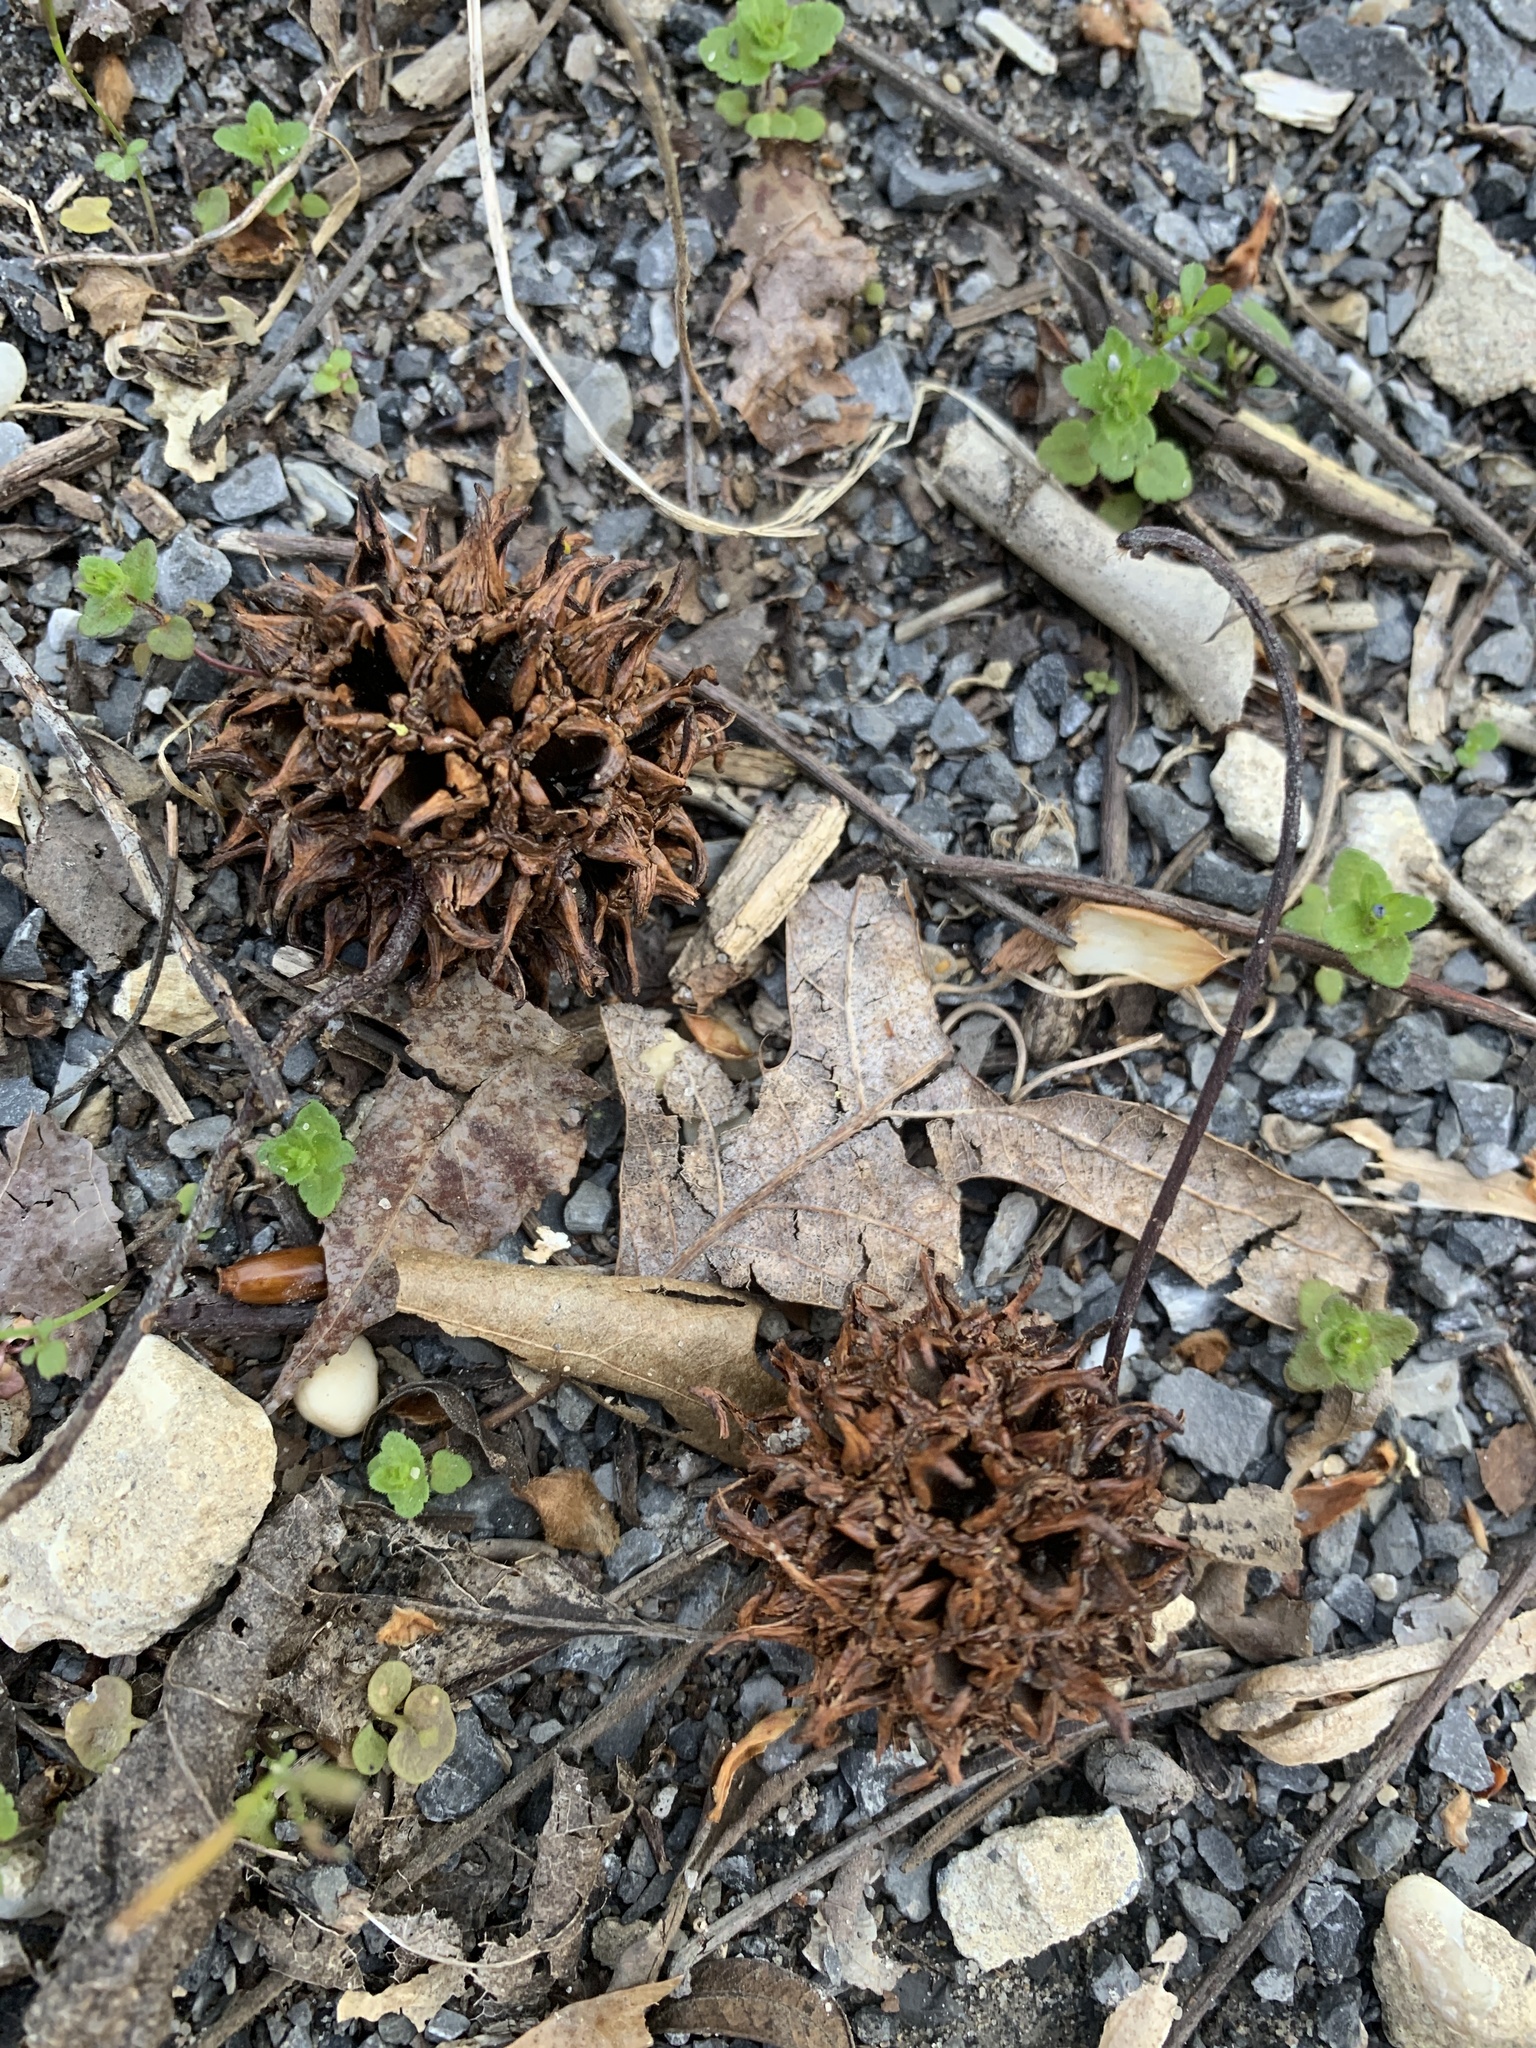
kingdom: Plantae
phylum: Tracheophyta
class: Magnoliopsida
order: Saxifragales
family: Altingiaceae
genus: Liquidambar
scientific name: Liquidambar styraciflua
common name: Sweet gum
